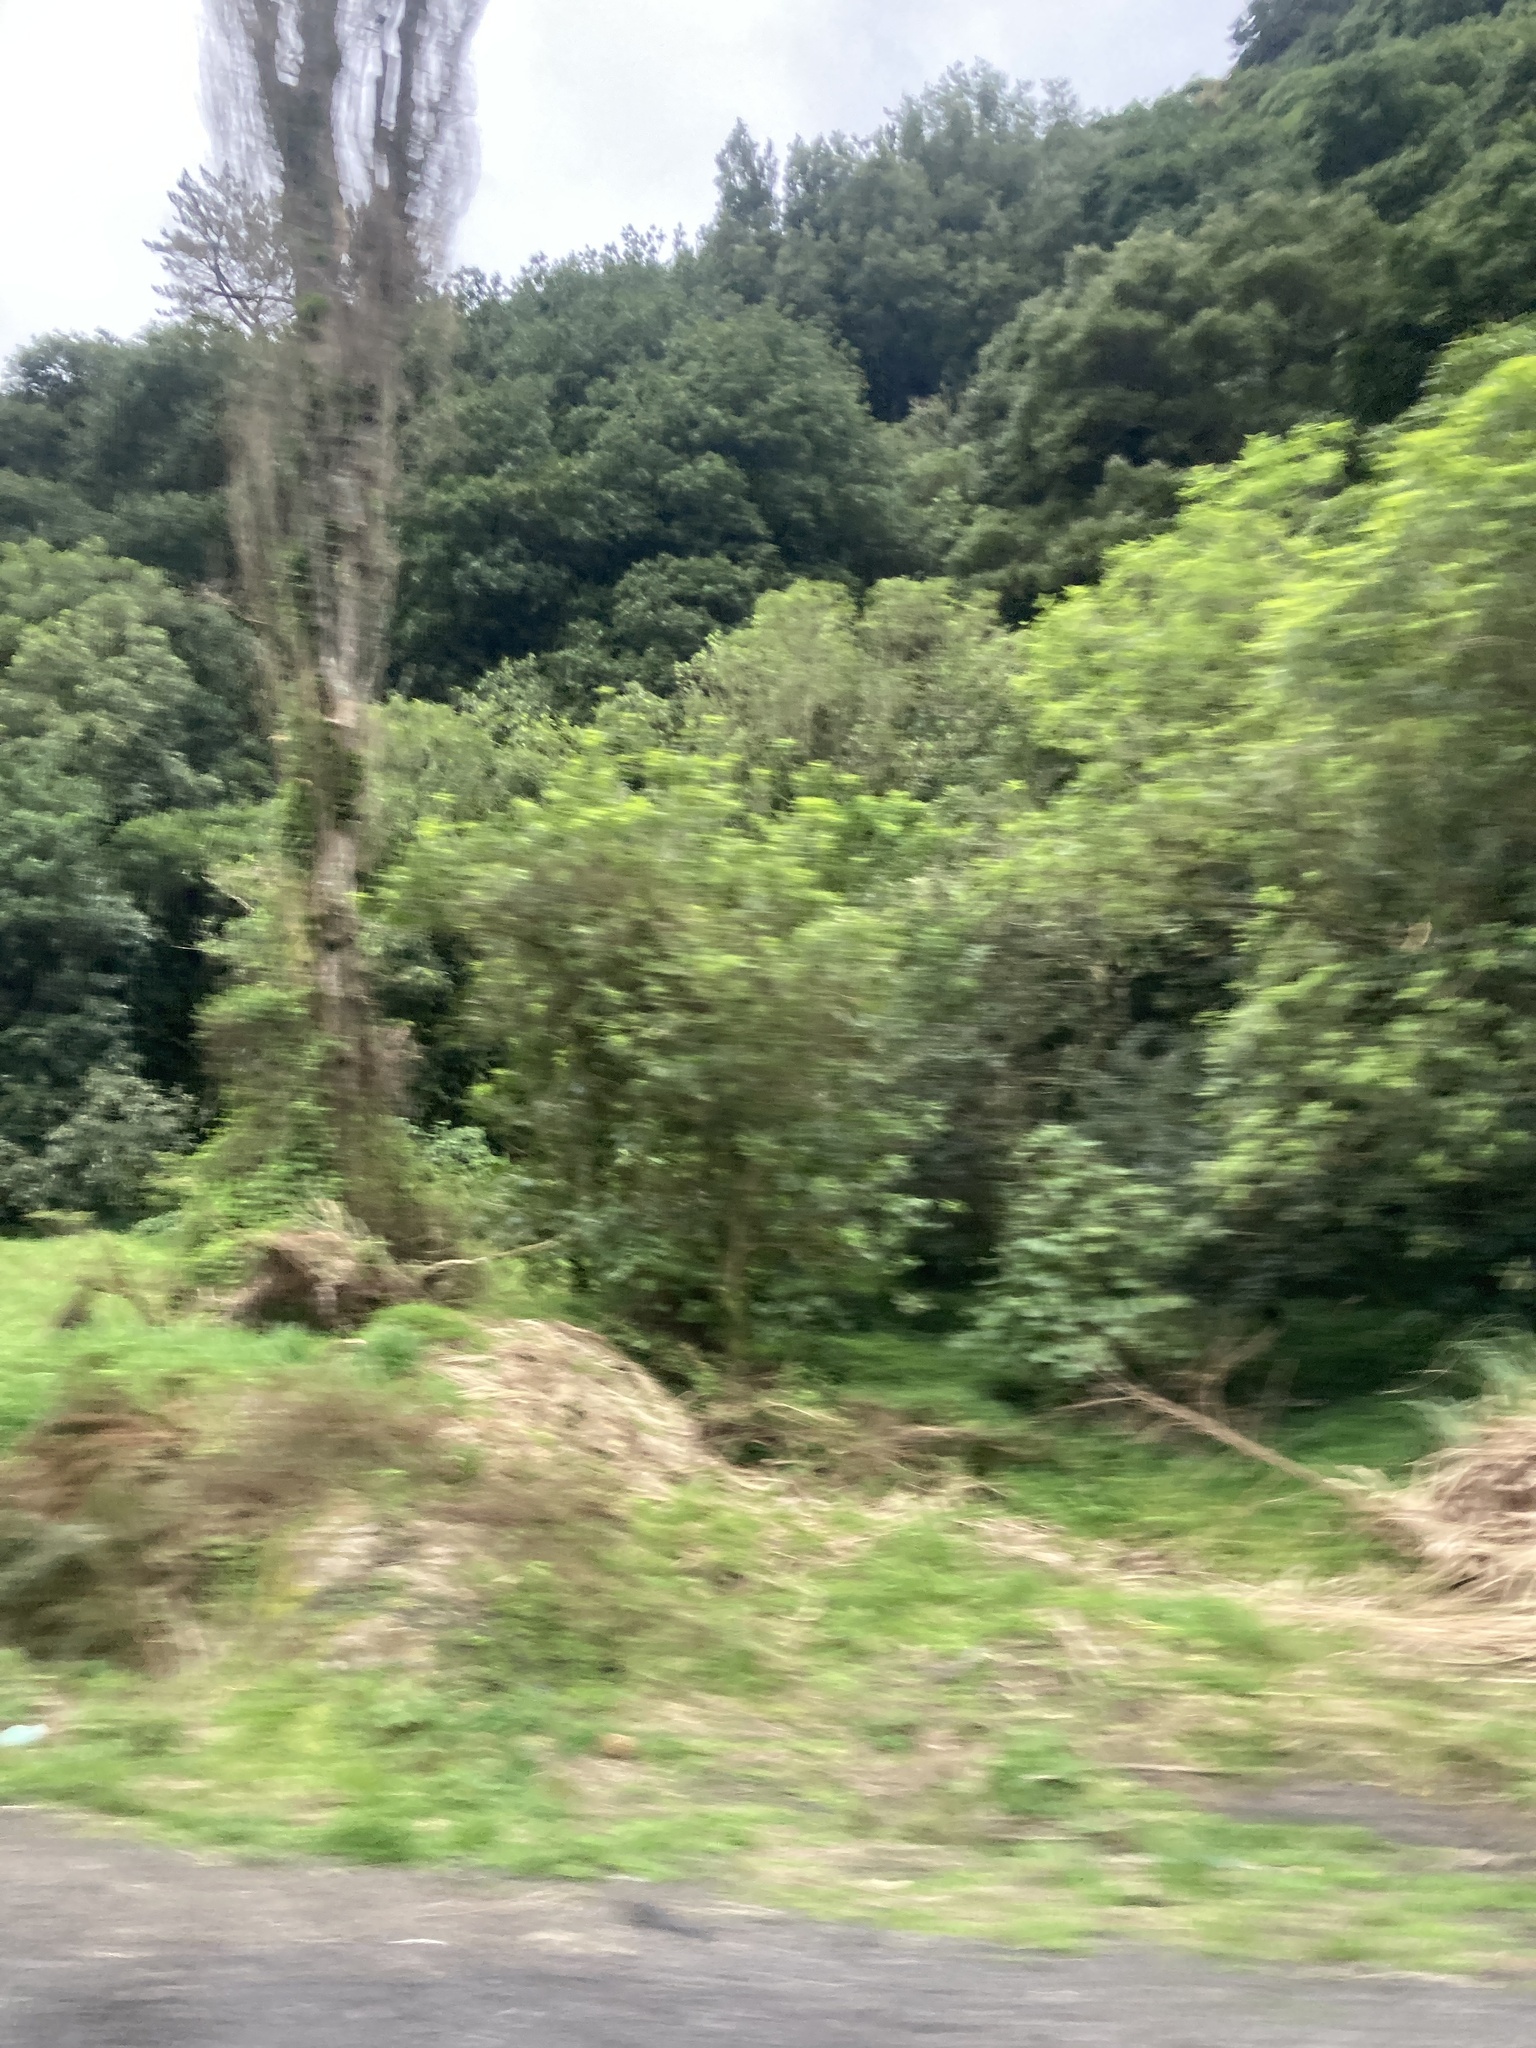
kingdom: Plantae
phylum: Tracheophyta
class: Magnoliopsida
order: Malpighiales
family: Salicaceae
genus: Populus
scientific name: Populus nigra
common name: Black poplar
